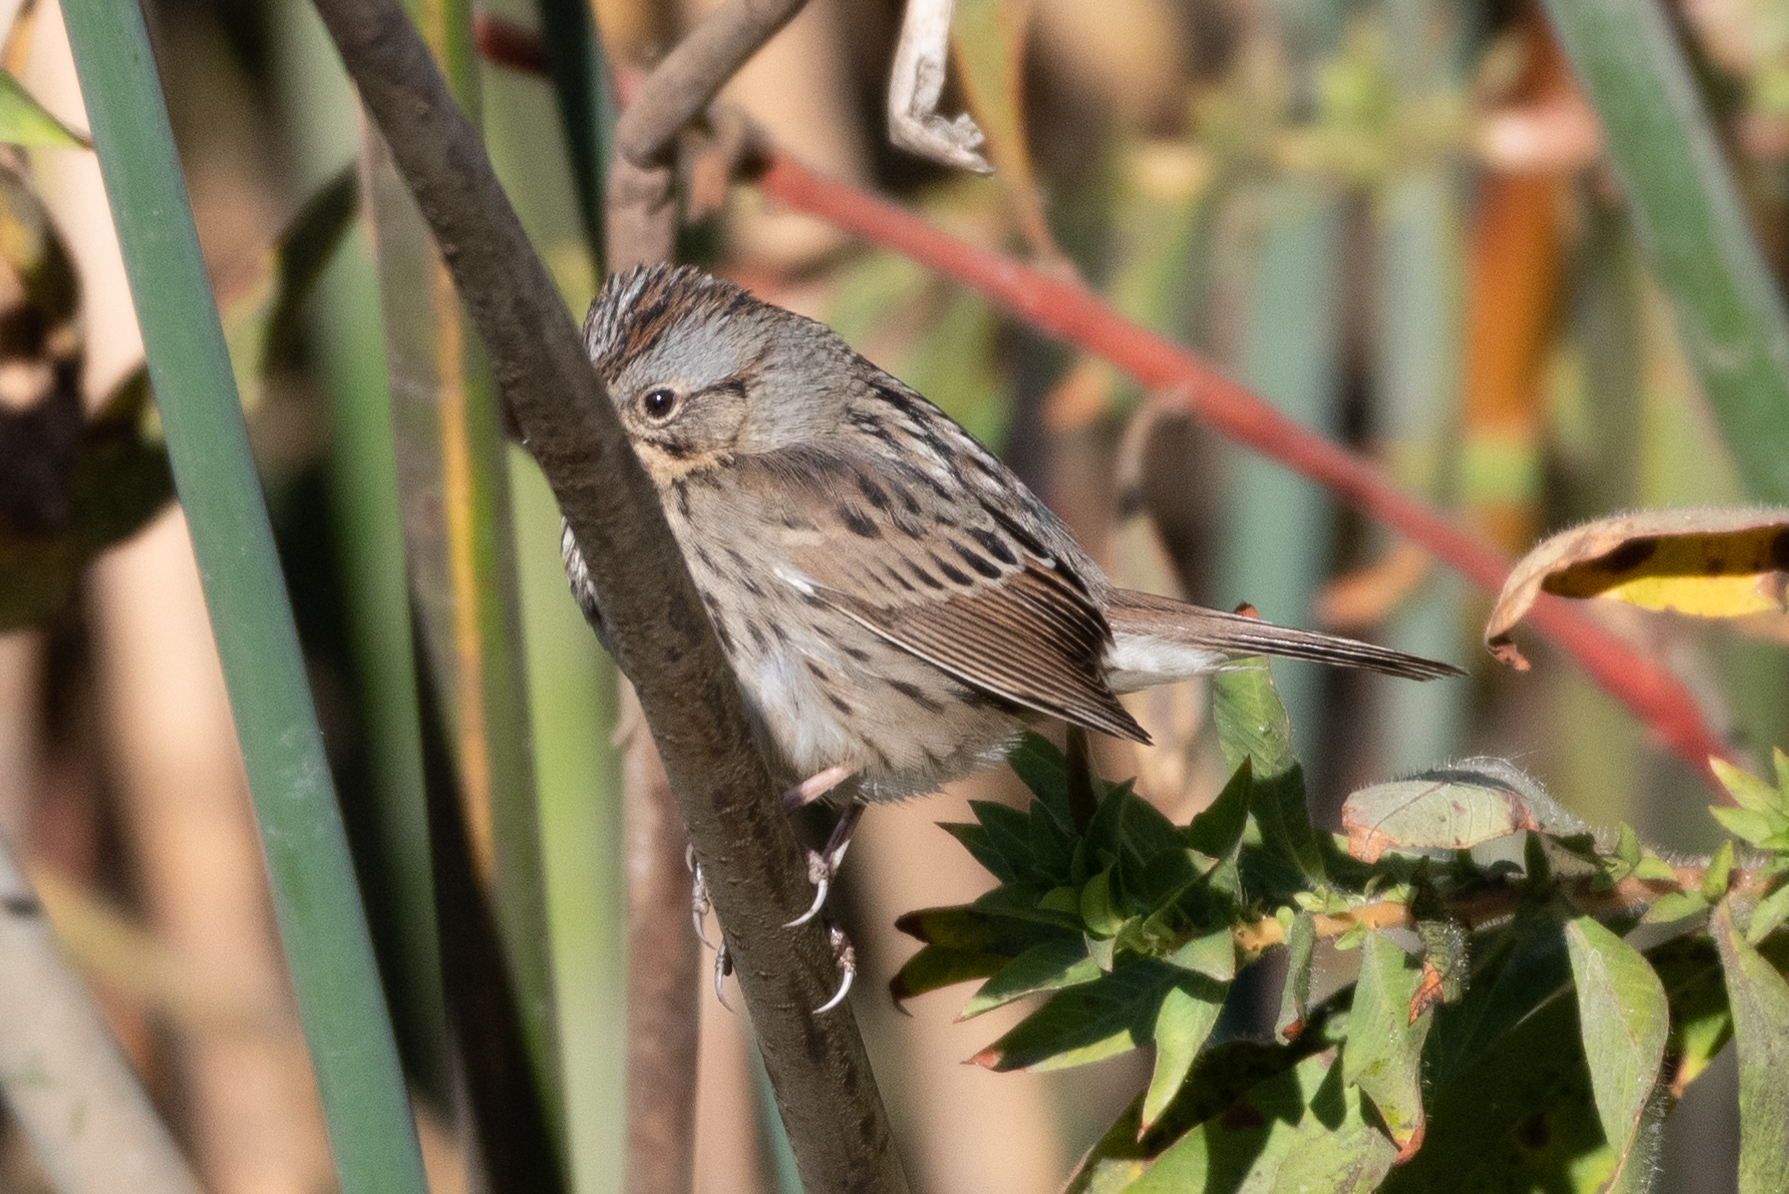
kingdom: Animalia
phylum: Chordata
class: Aves
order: Passeriformes
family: Passerellidae
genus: Melospiza
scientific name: Melospiza lincolnii
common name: Lincoln's sparrow
